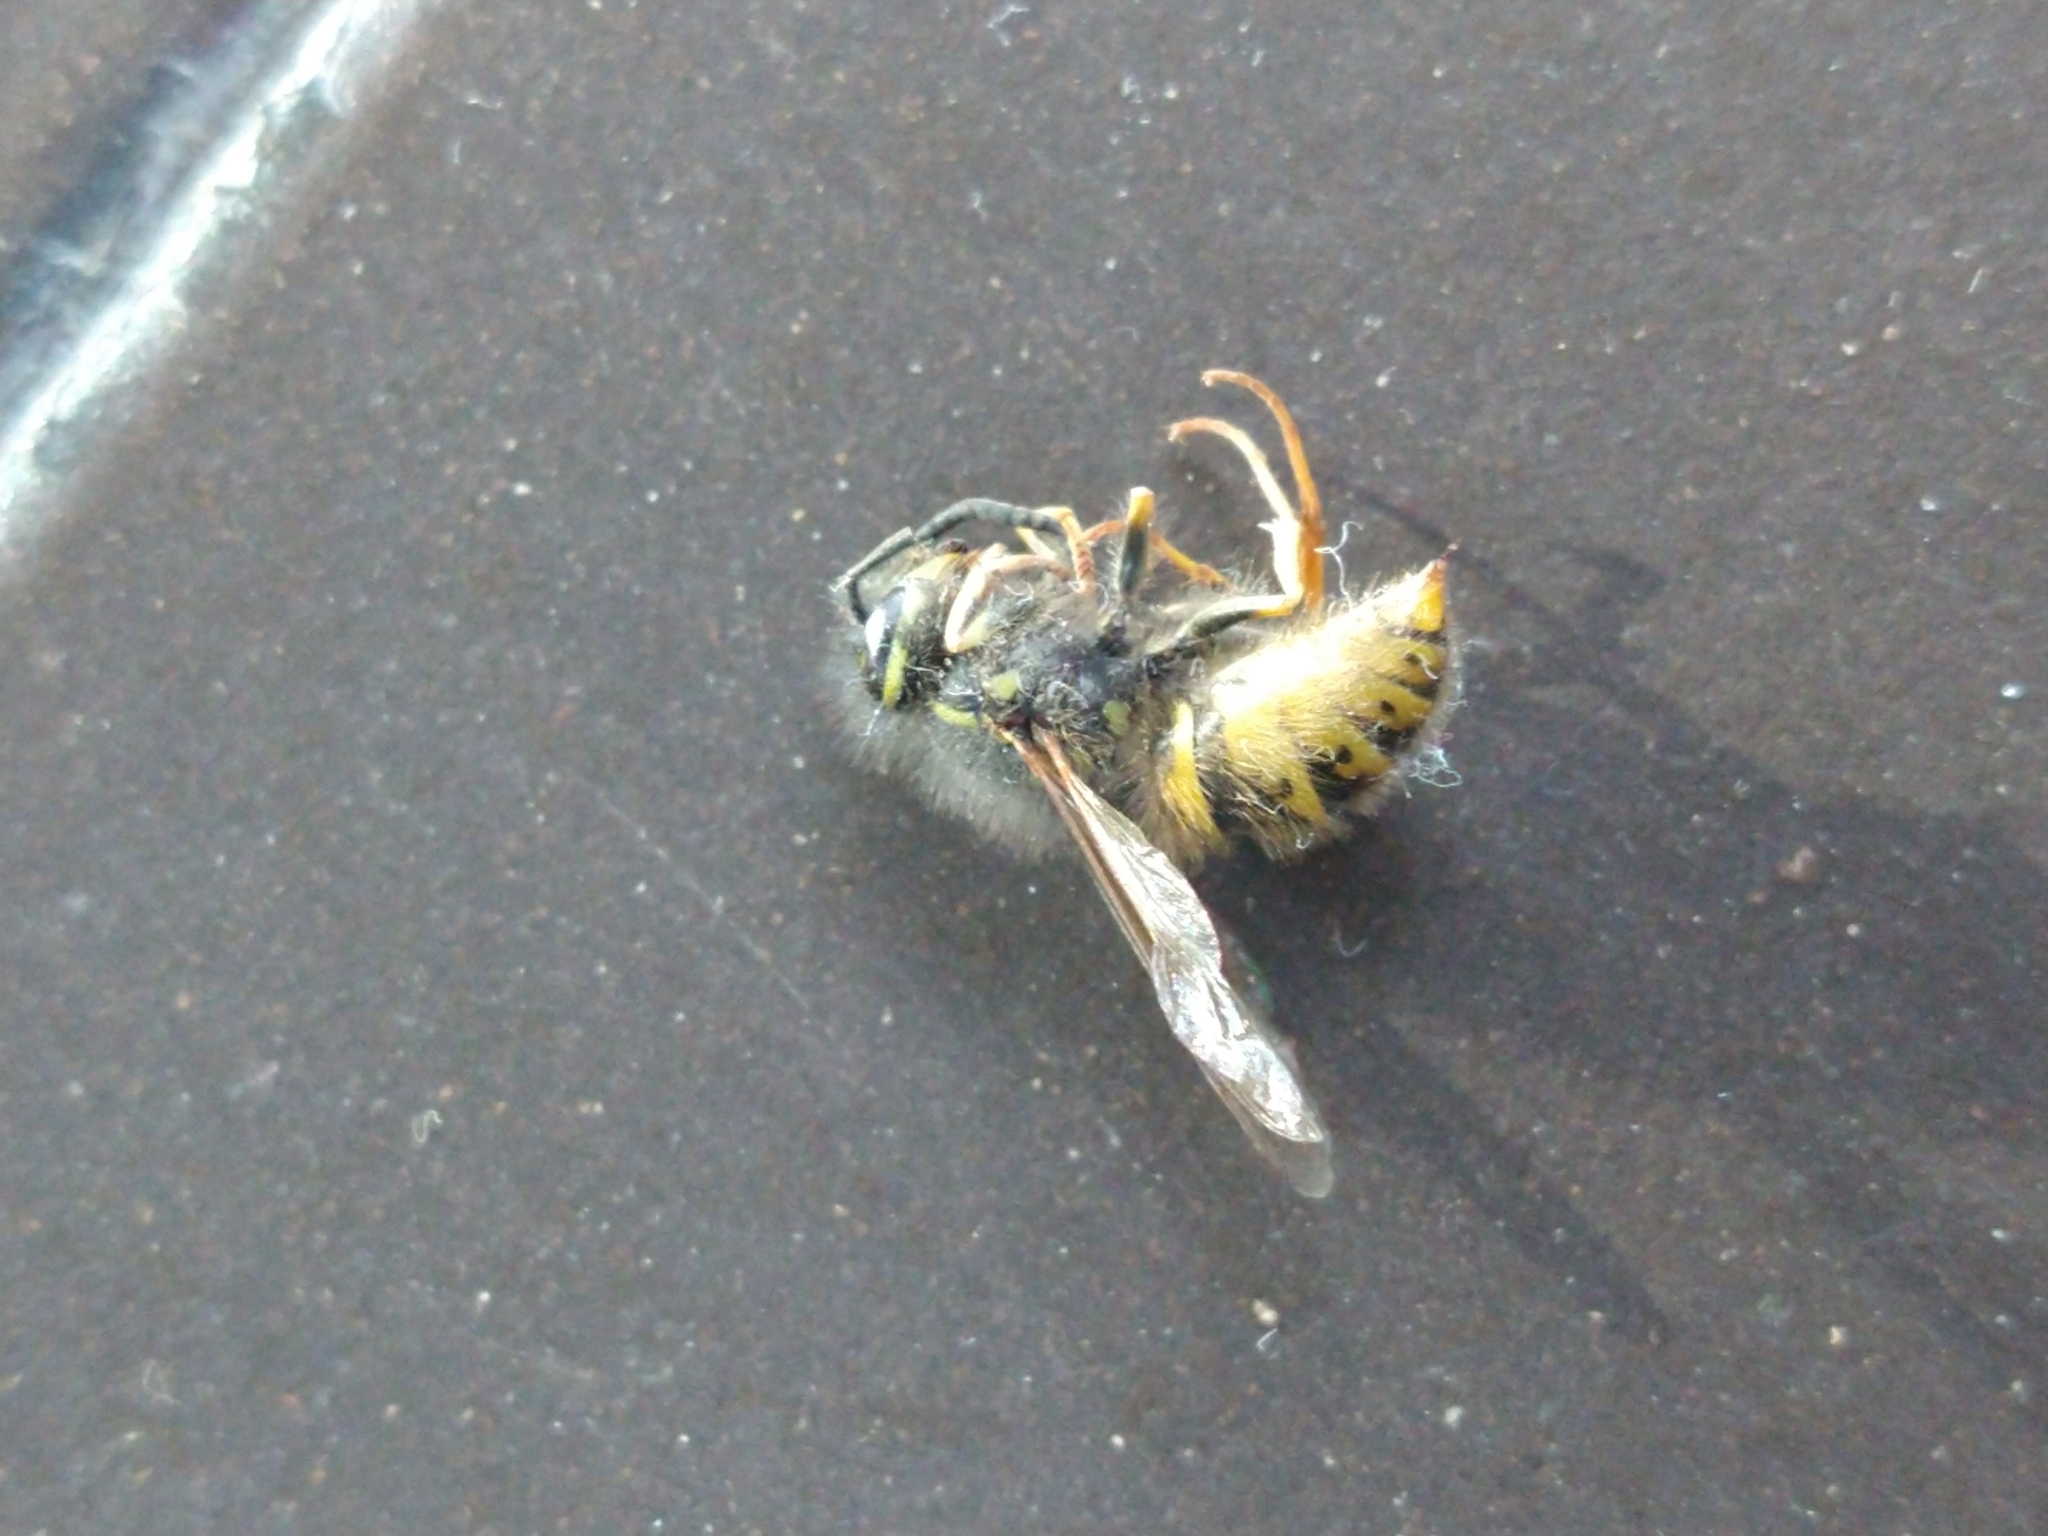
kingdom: Animalia
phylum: Arthropoda
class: Insecta
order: Hymenoptera
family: Vespidae
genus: Vespula
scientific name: Vespula vulgaris
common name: Common wasp
